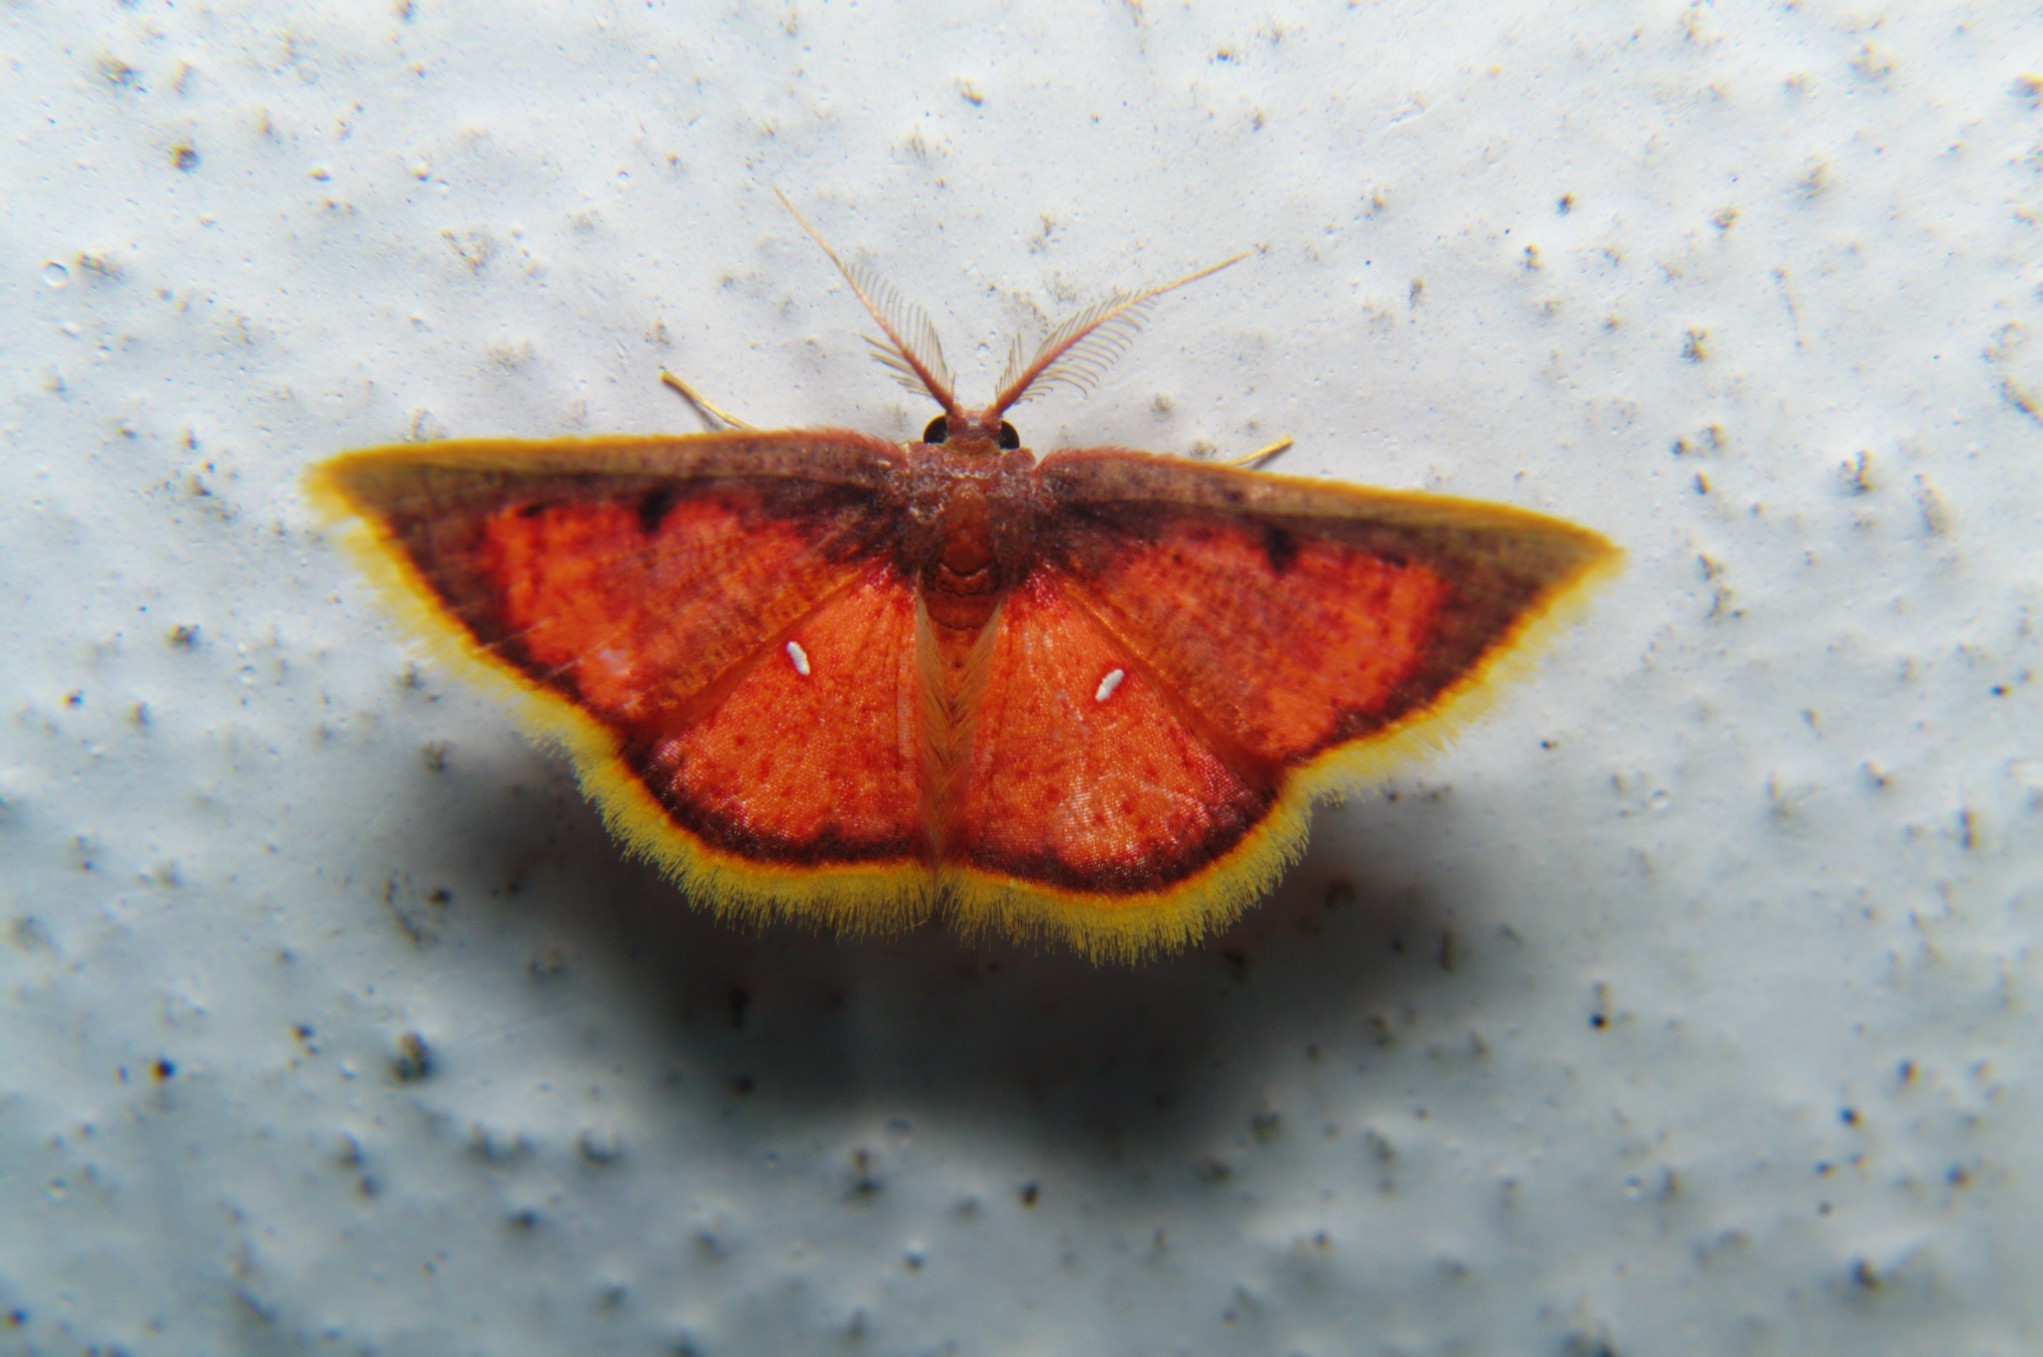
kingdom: Animalia
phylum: Arthropoda
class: Insecta
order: Lepidoptera
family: Geometridae
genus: Chrysocraspeda
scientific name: Chrysocraspeda sanguinea
